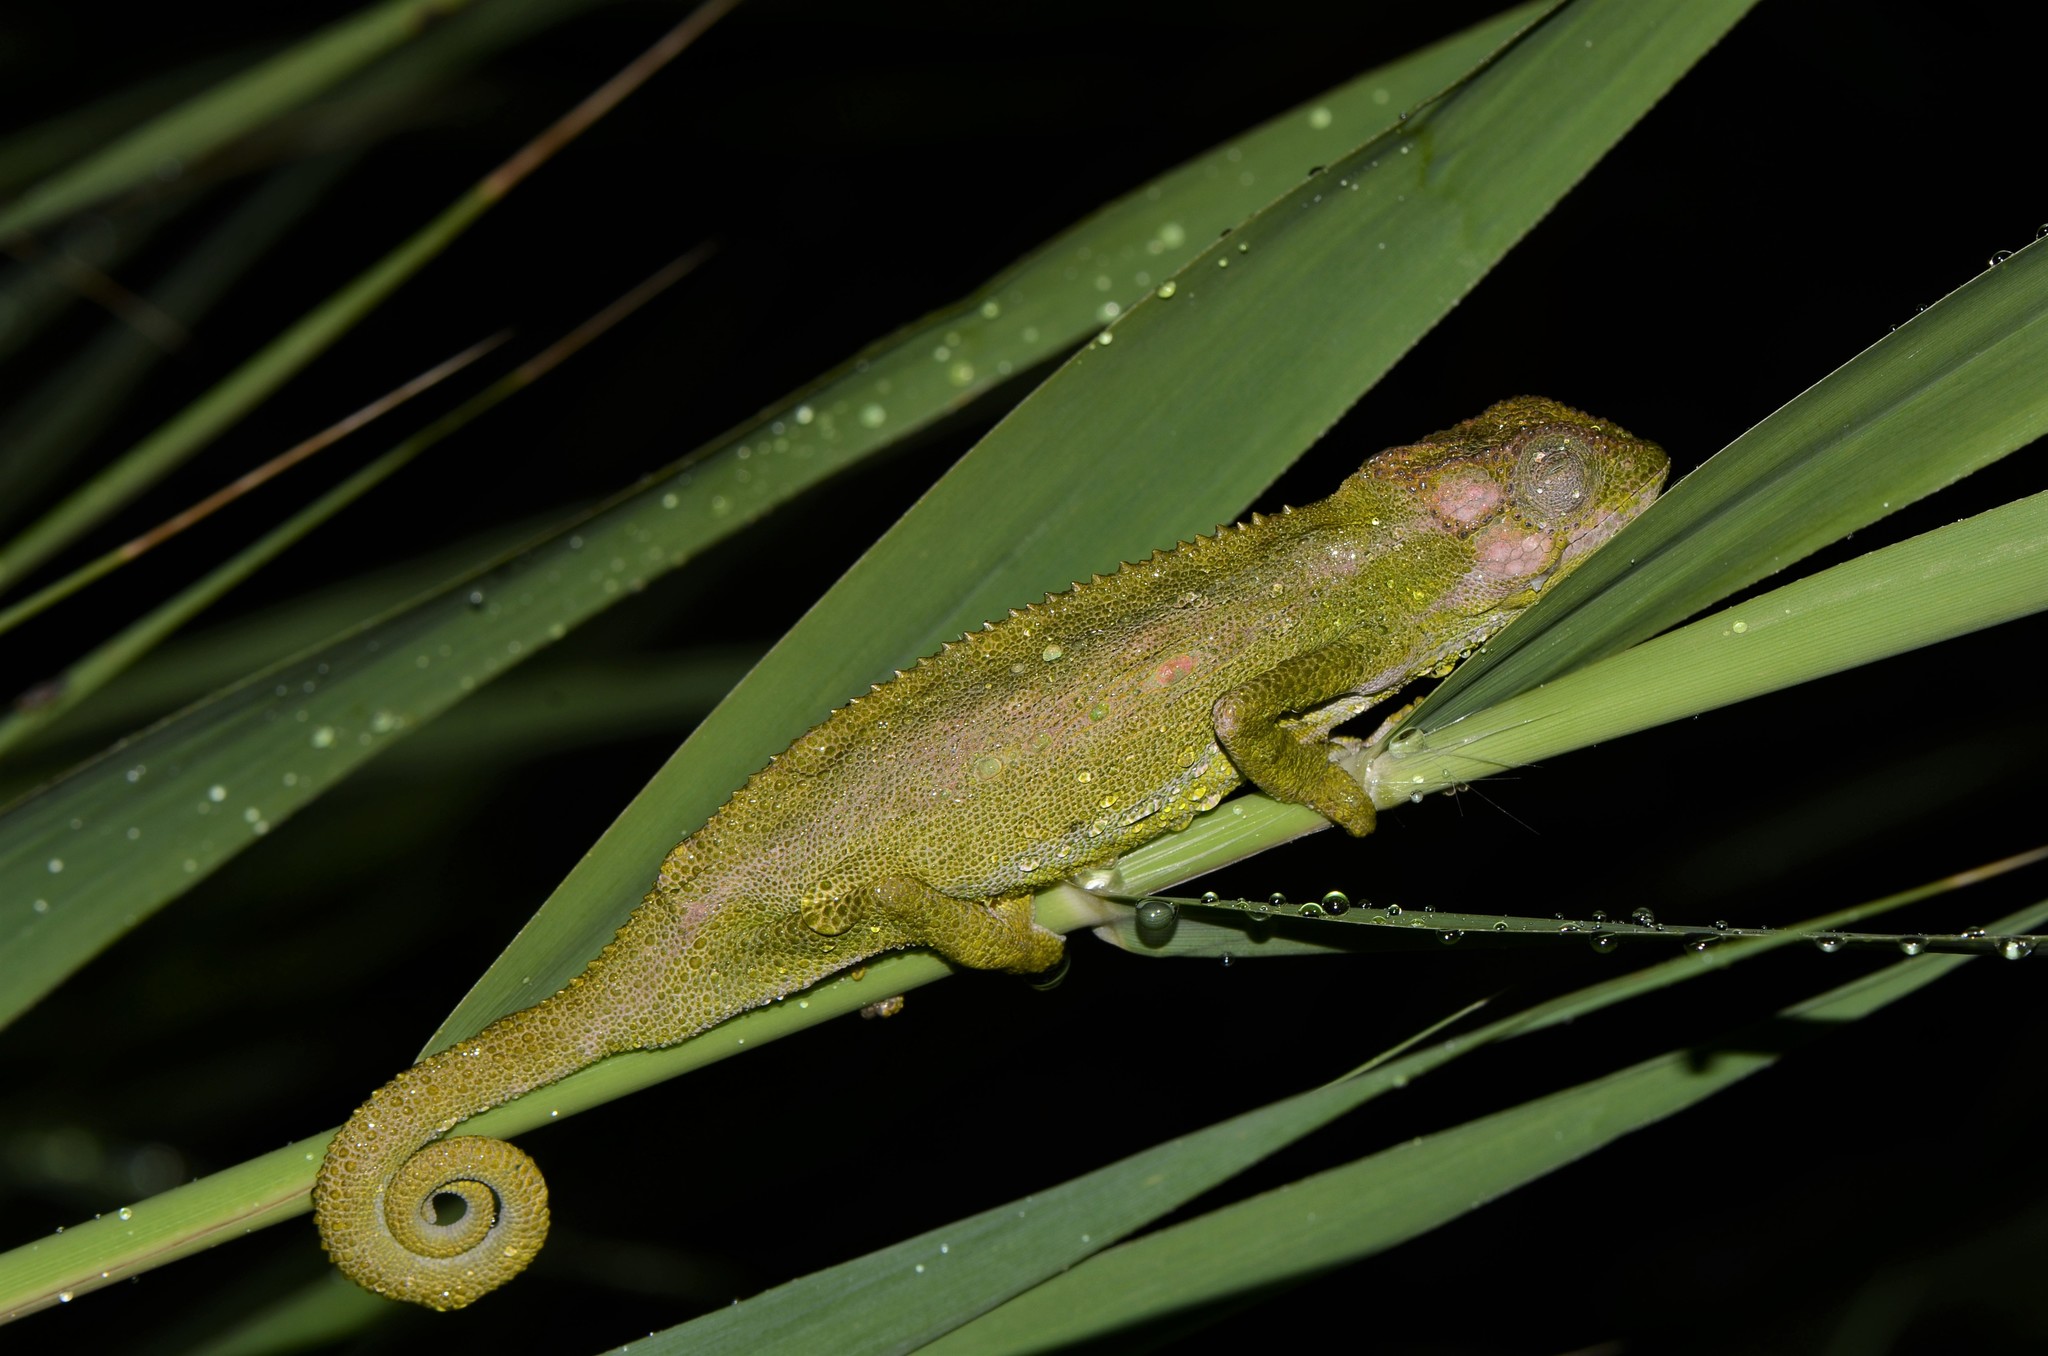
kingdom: Animalia
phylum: Chordata
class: Squamata
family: Chamaeleonidae
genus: Bradypodion
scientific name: Bradypodion pumilum
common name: Cape dwarf chameleon
